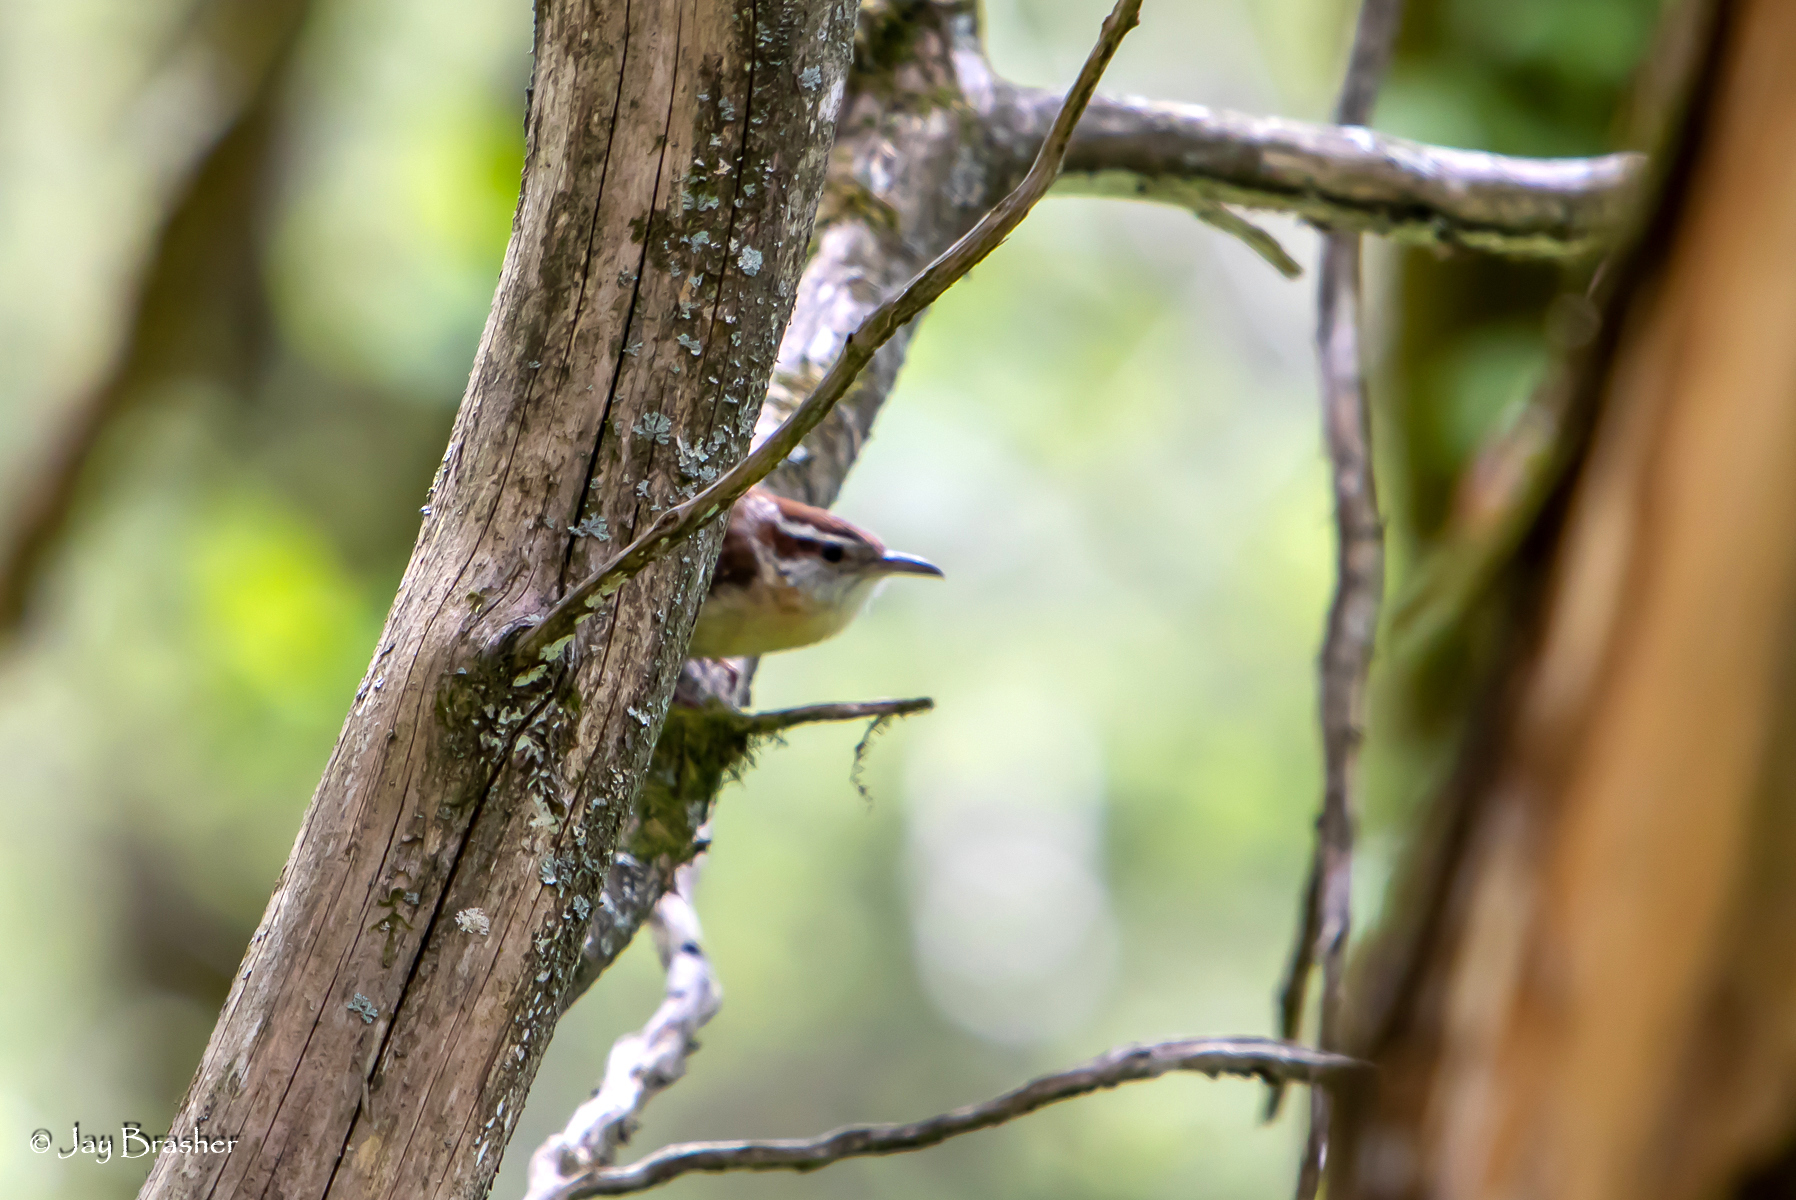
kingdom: Animalia
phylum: Chordata
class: Aves
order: Passeriformes
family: Troglodytidae
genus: Thryothorus
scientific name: Thryothorus ludovicianus
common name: Carolina wren
